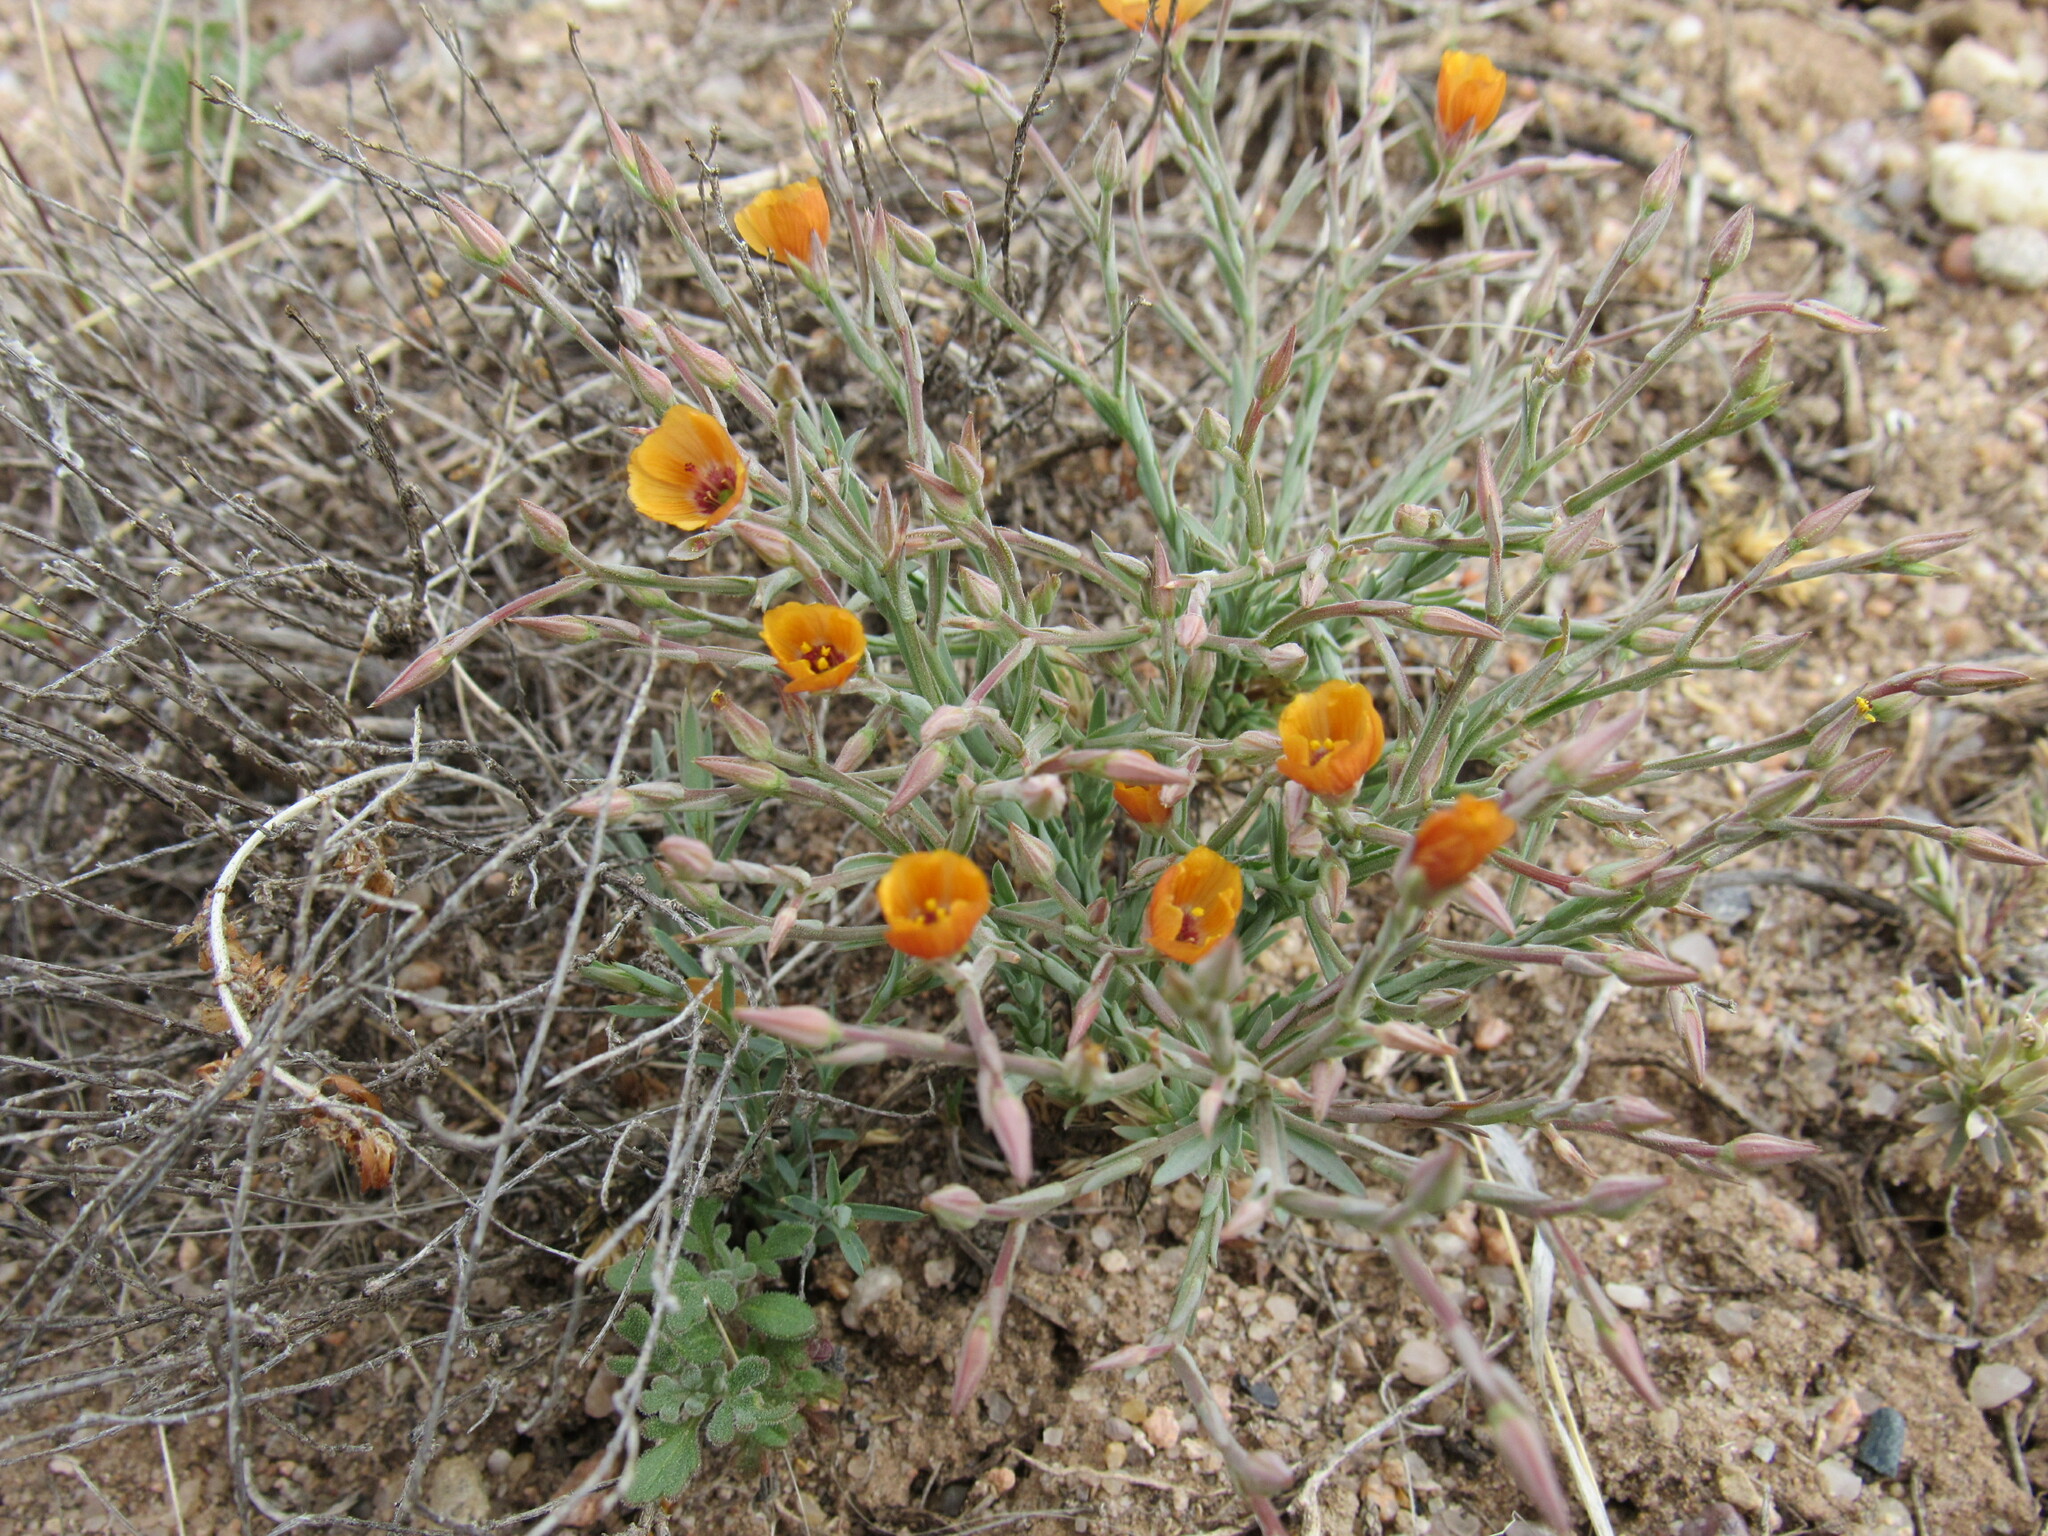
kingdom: Plantae
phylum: Tracheophyta
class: Magnoliopsida
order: Malpighiales
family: Linaceae
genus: Linum
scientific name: Linum puberulum
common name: Plains flax
